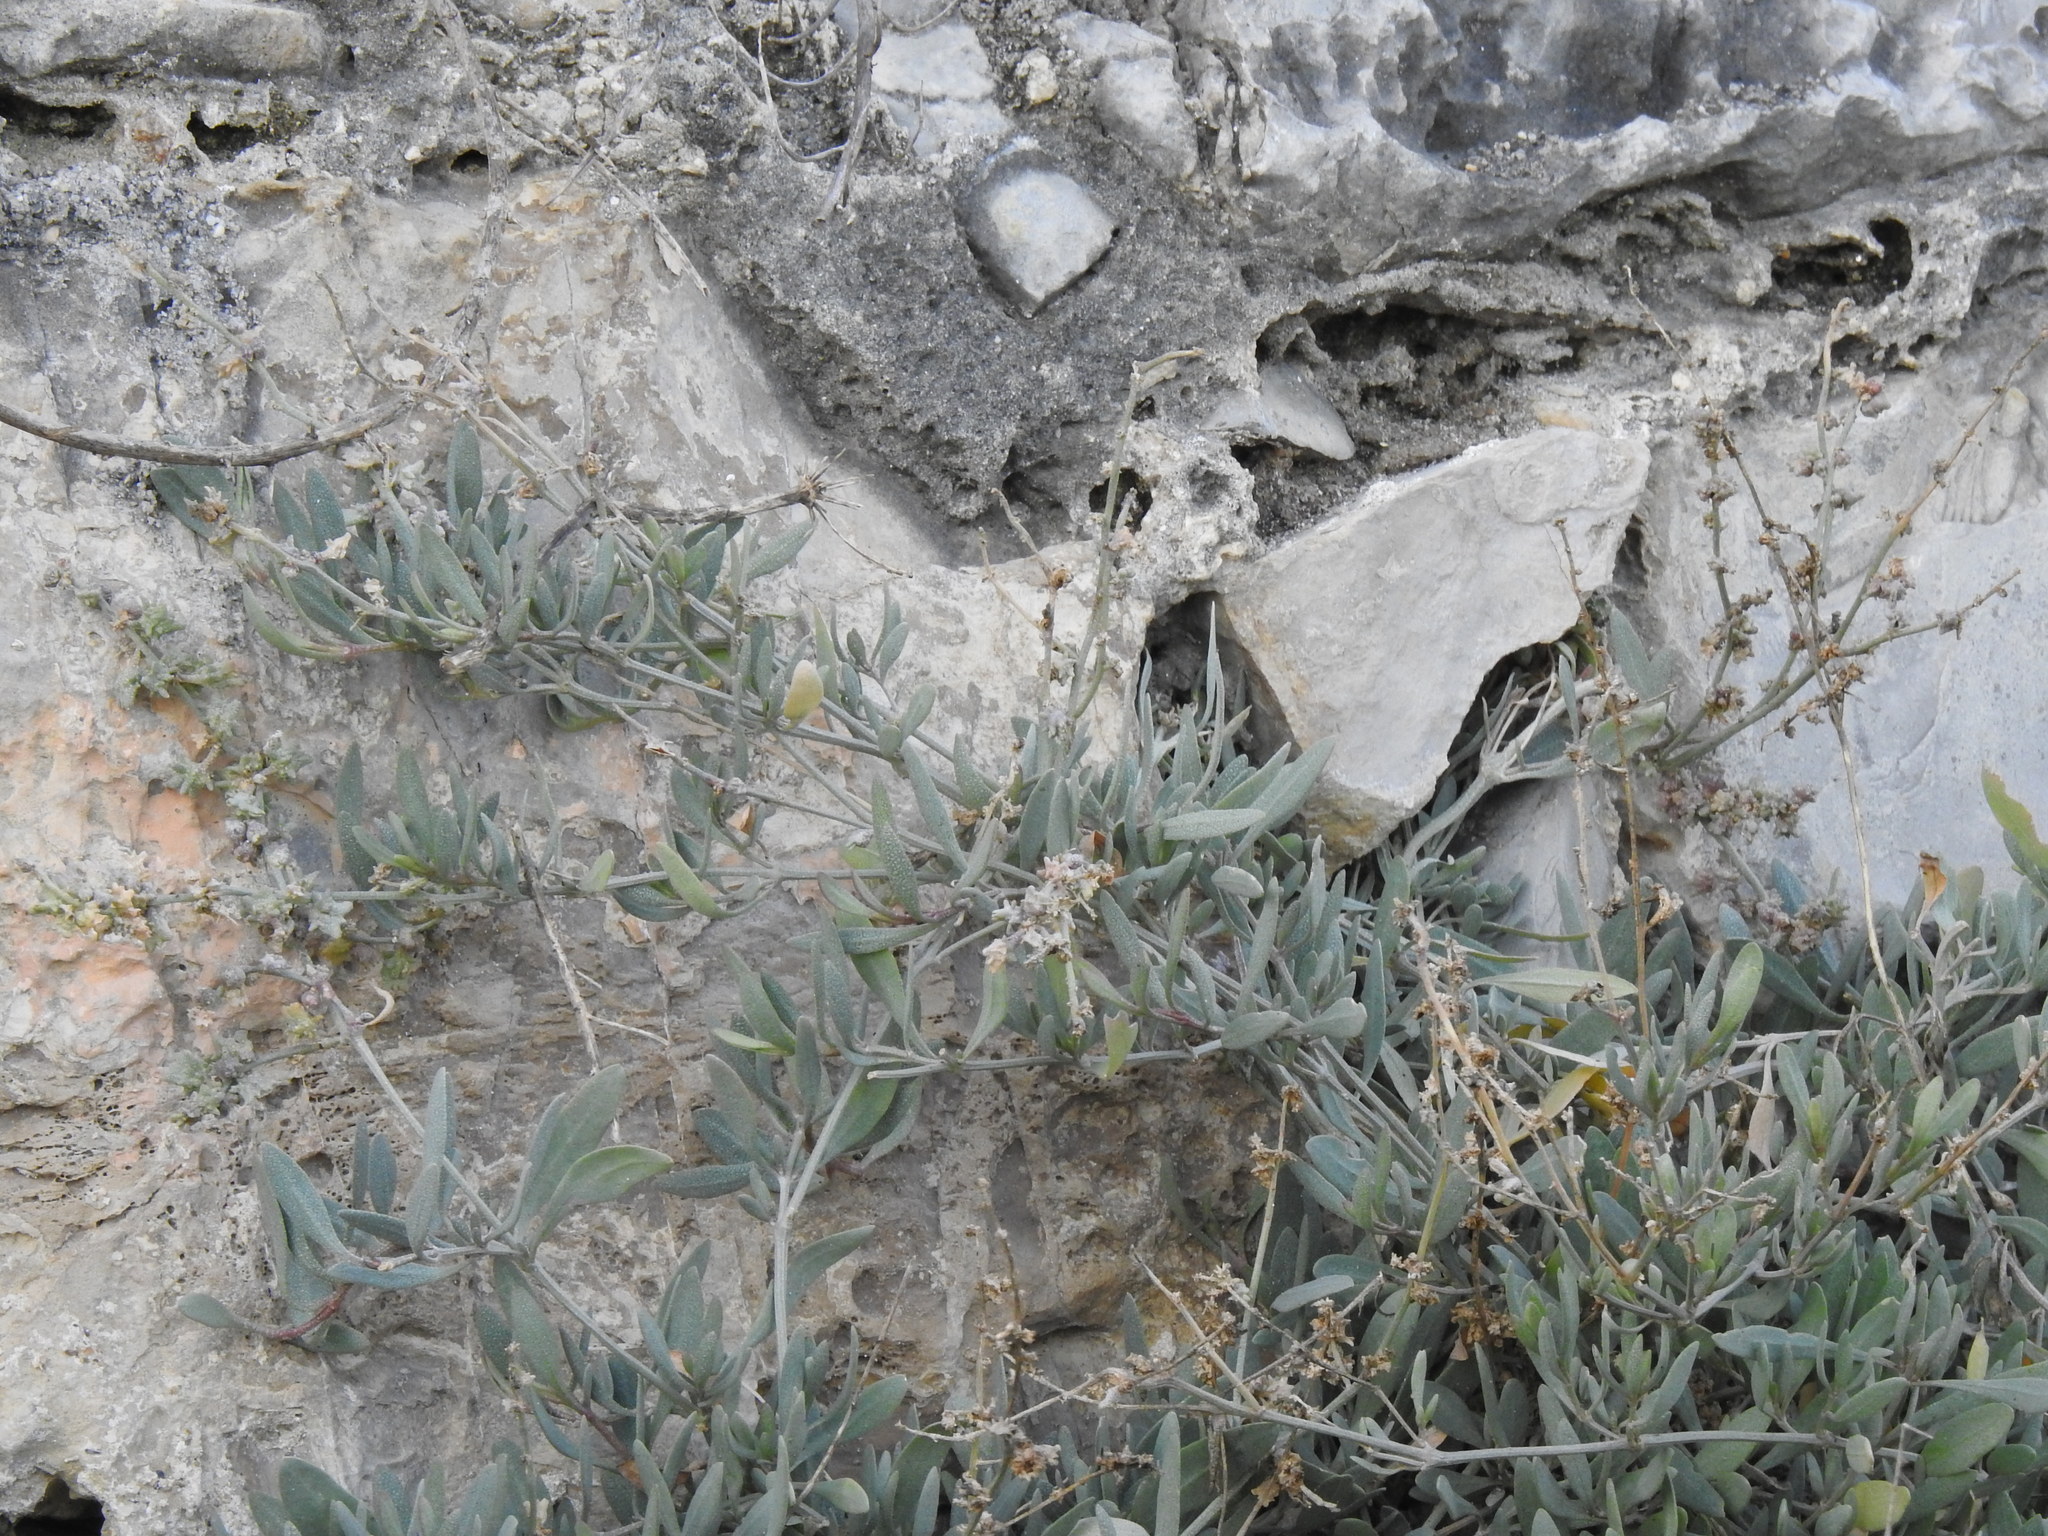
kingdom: Plantae
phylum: Tracheophyta
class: Magnoliopsida
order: Caryophyllales
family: Amaranthaceae
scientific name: Amaranthaceae
